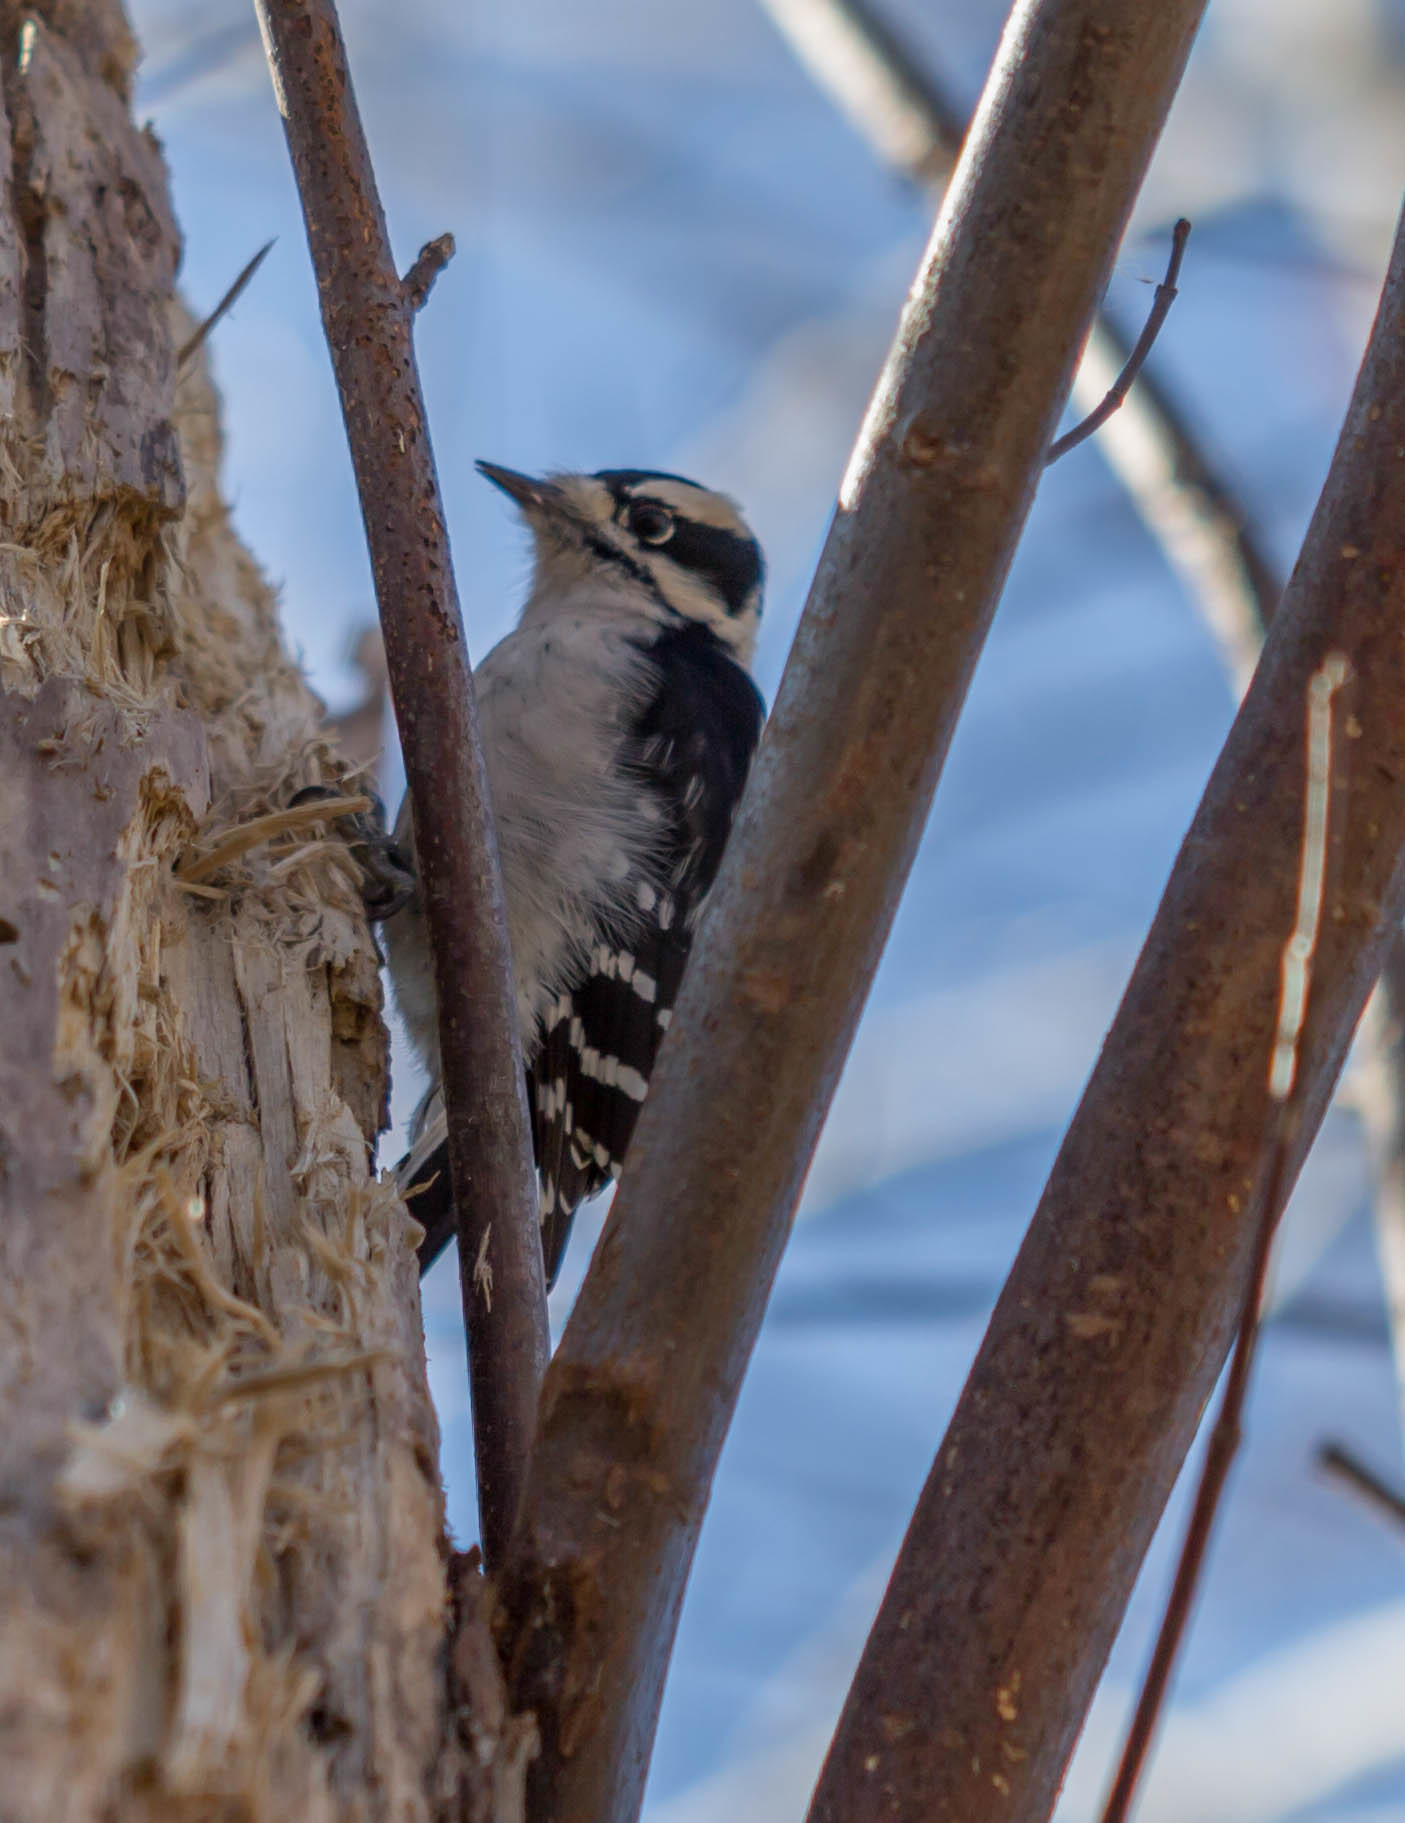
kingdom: Animalia
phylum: Chordata
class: Aves
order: Piciformes
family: Picidae
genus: Dryobates
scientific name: Dryobates pubescens
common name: Downy woodpecker
